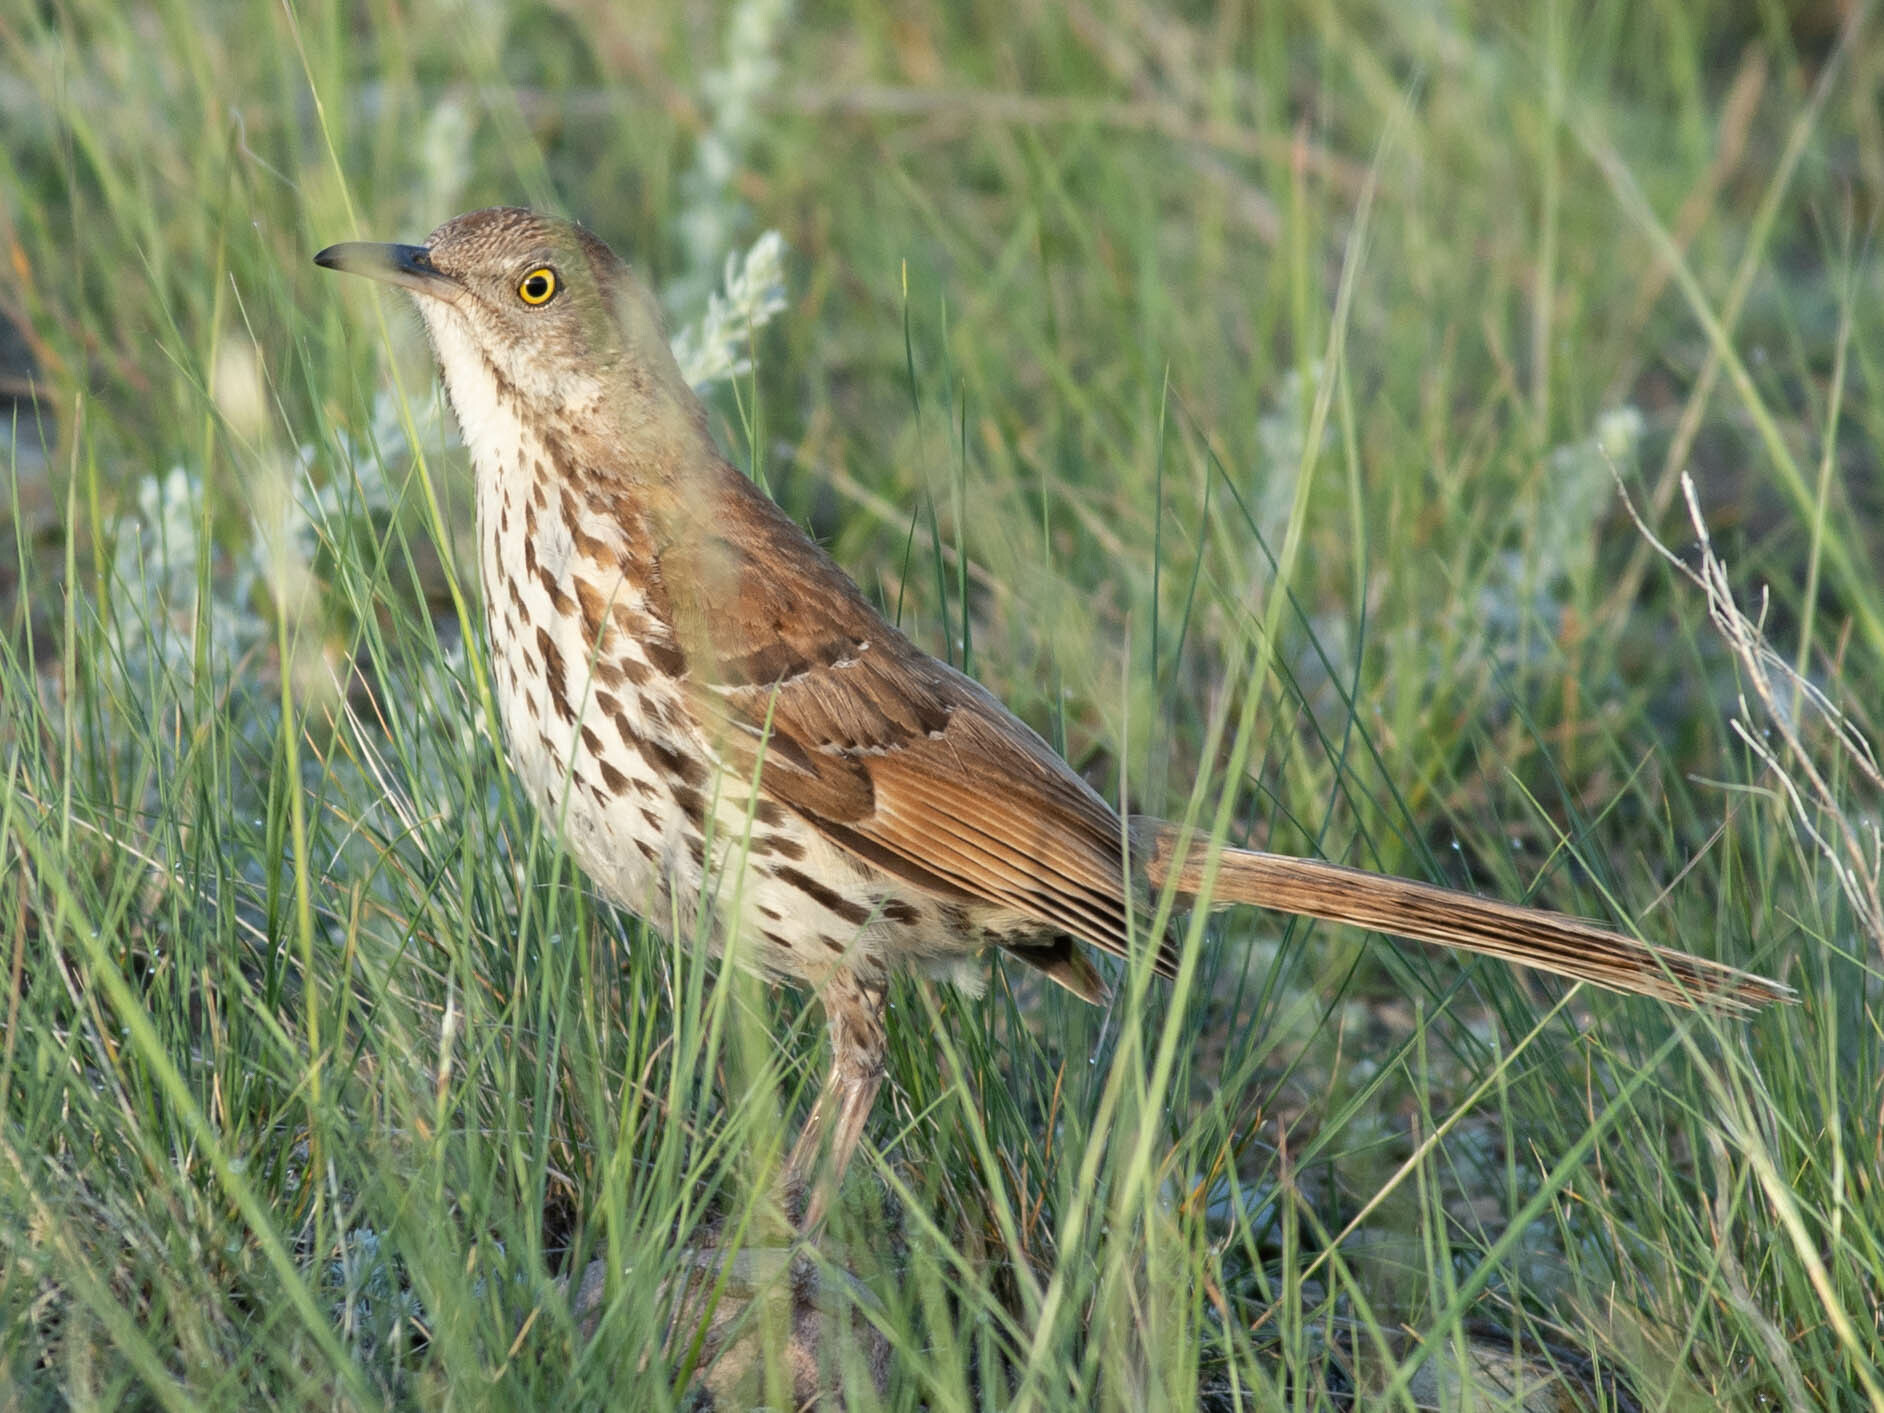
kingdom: Animalia
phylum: Chordata
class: Aves
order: Passeriformes
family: Mimidae
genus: Toxostoma
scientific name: Toxostoma rufum
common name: Brown thrasher
